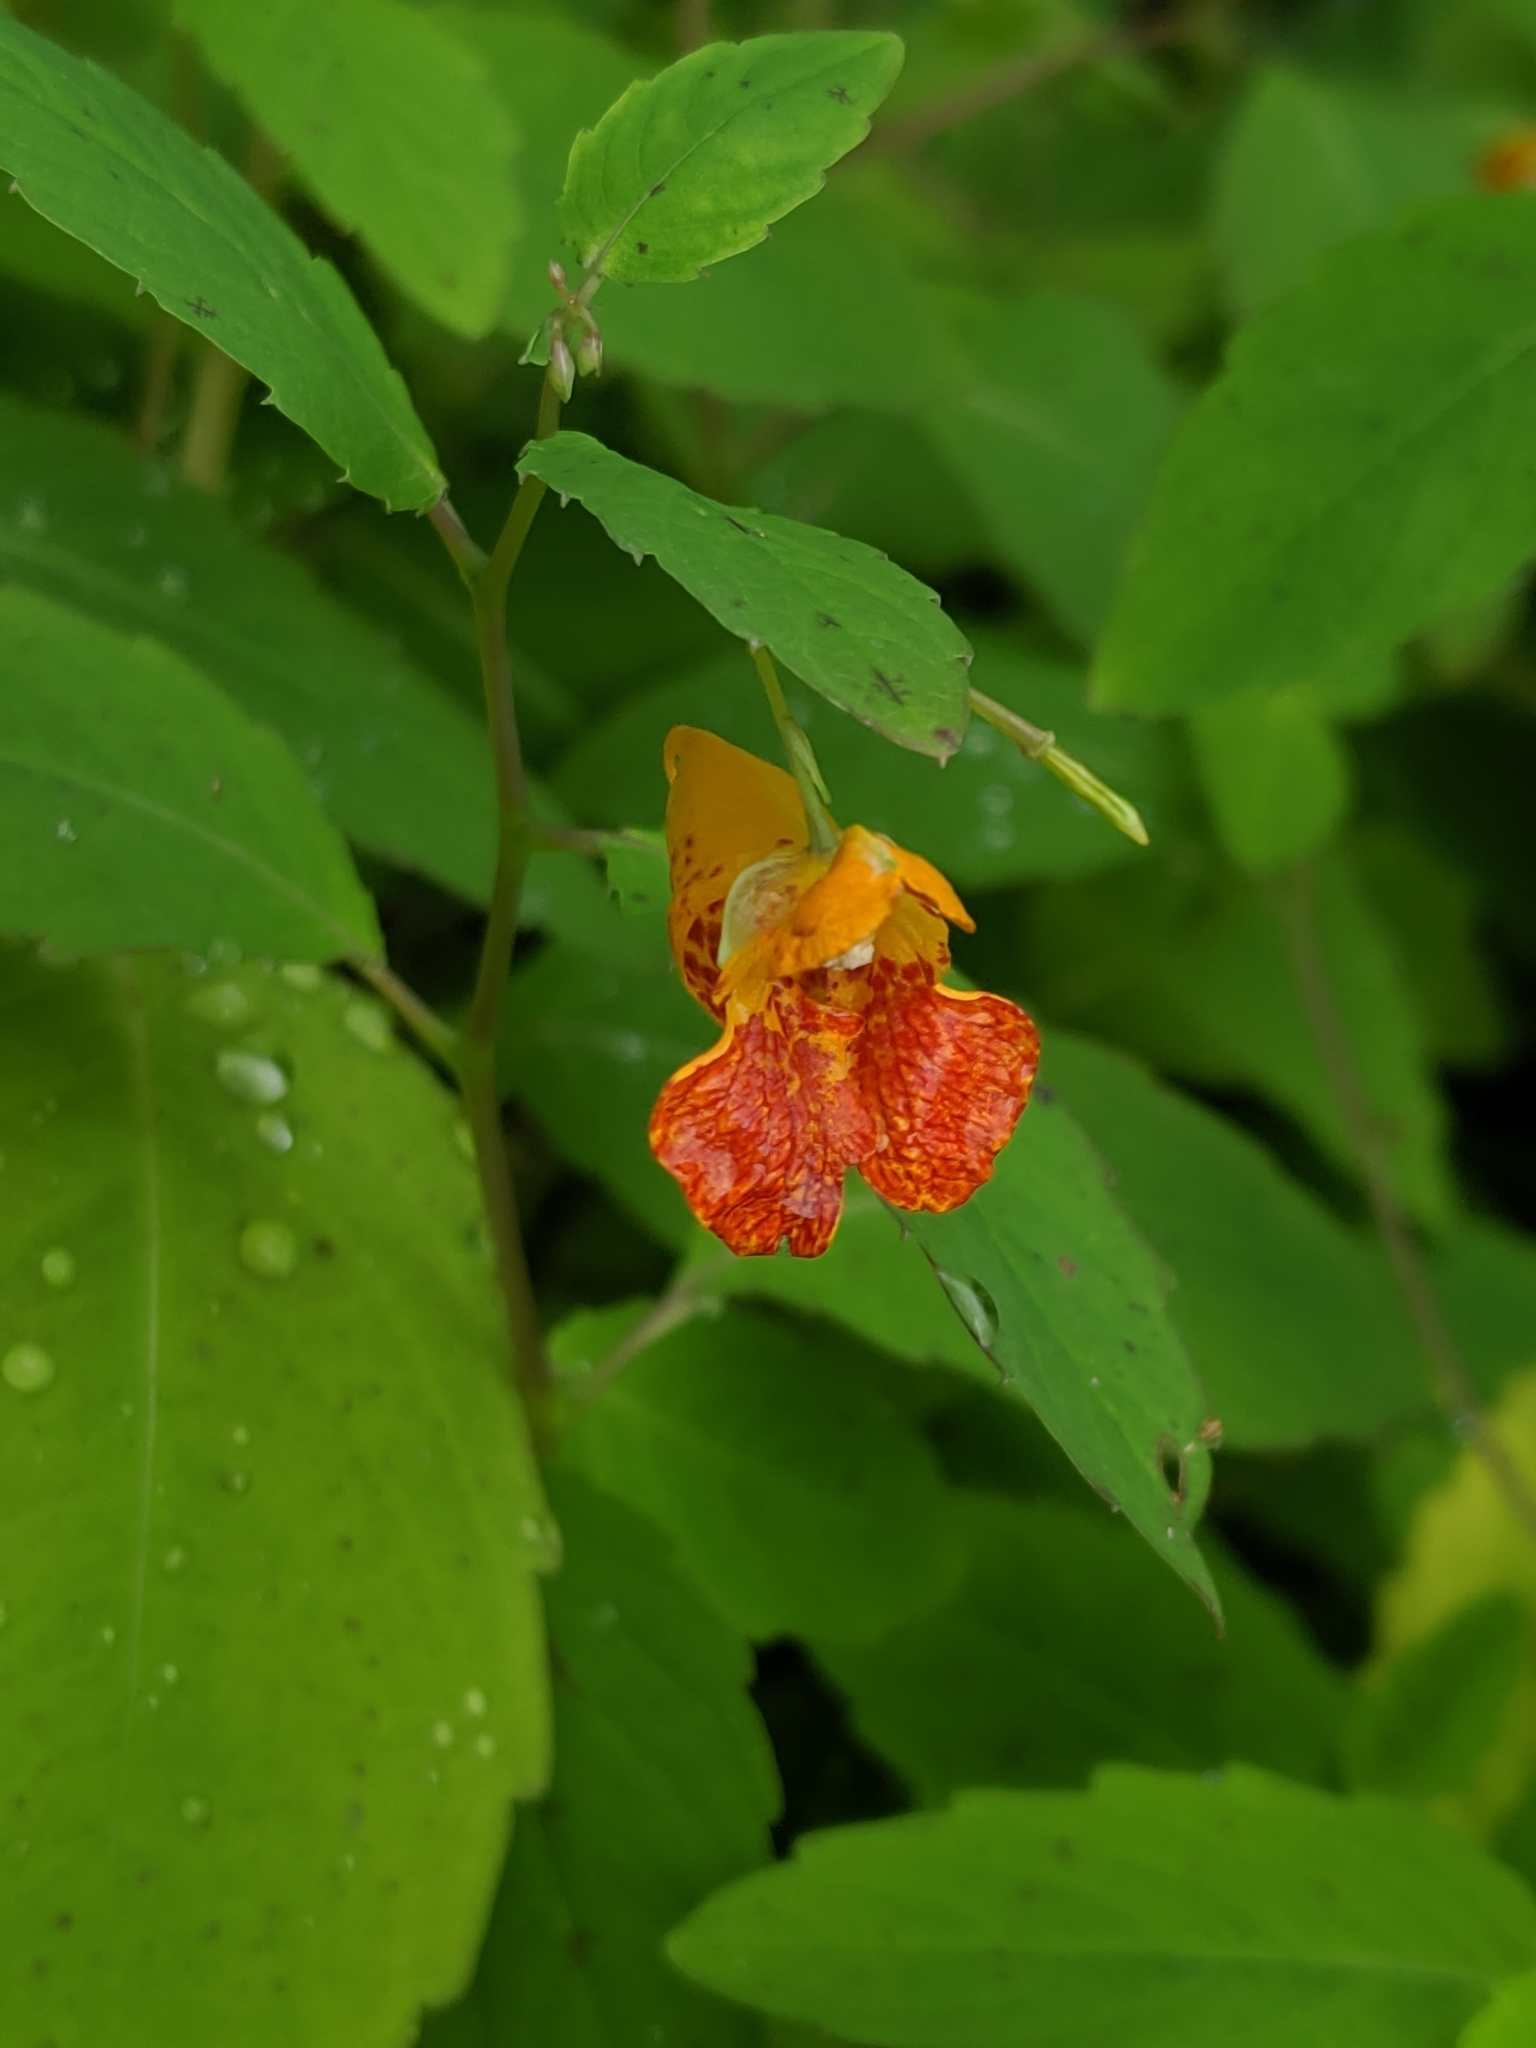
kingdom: Plantae
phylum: Tracheophyta
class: Magnoliopsida
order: Ericales
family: Balsaminaceae
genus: Impatiens
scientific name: Impatiens capensis
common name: Orange balsam
